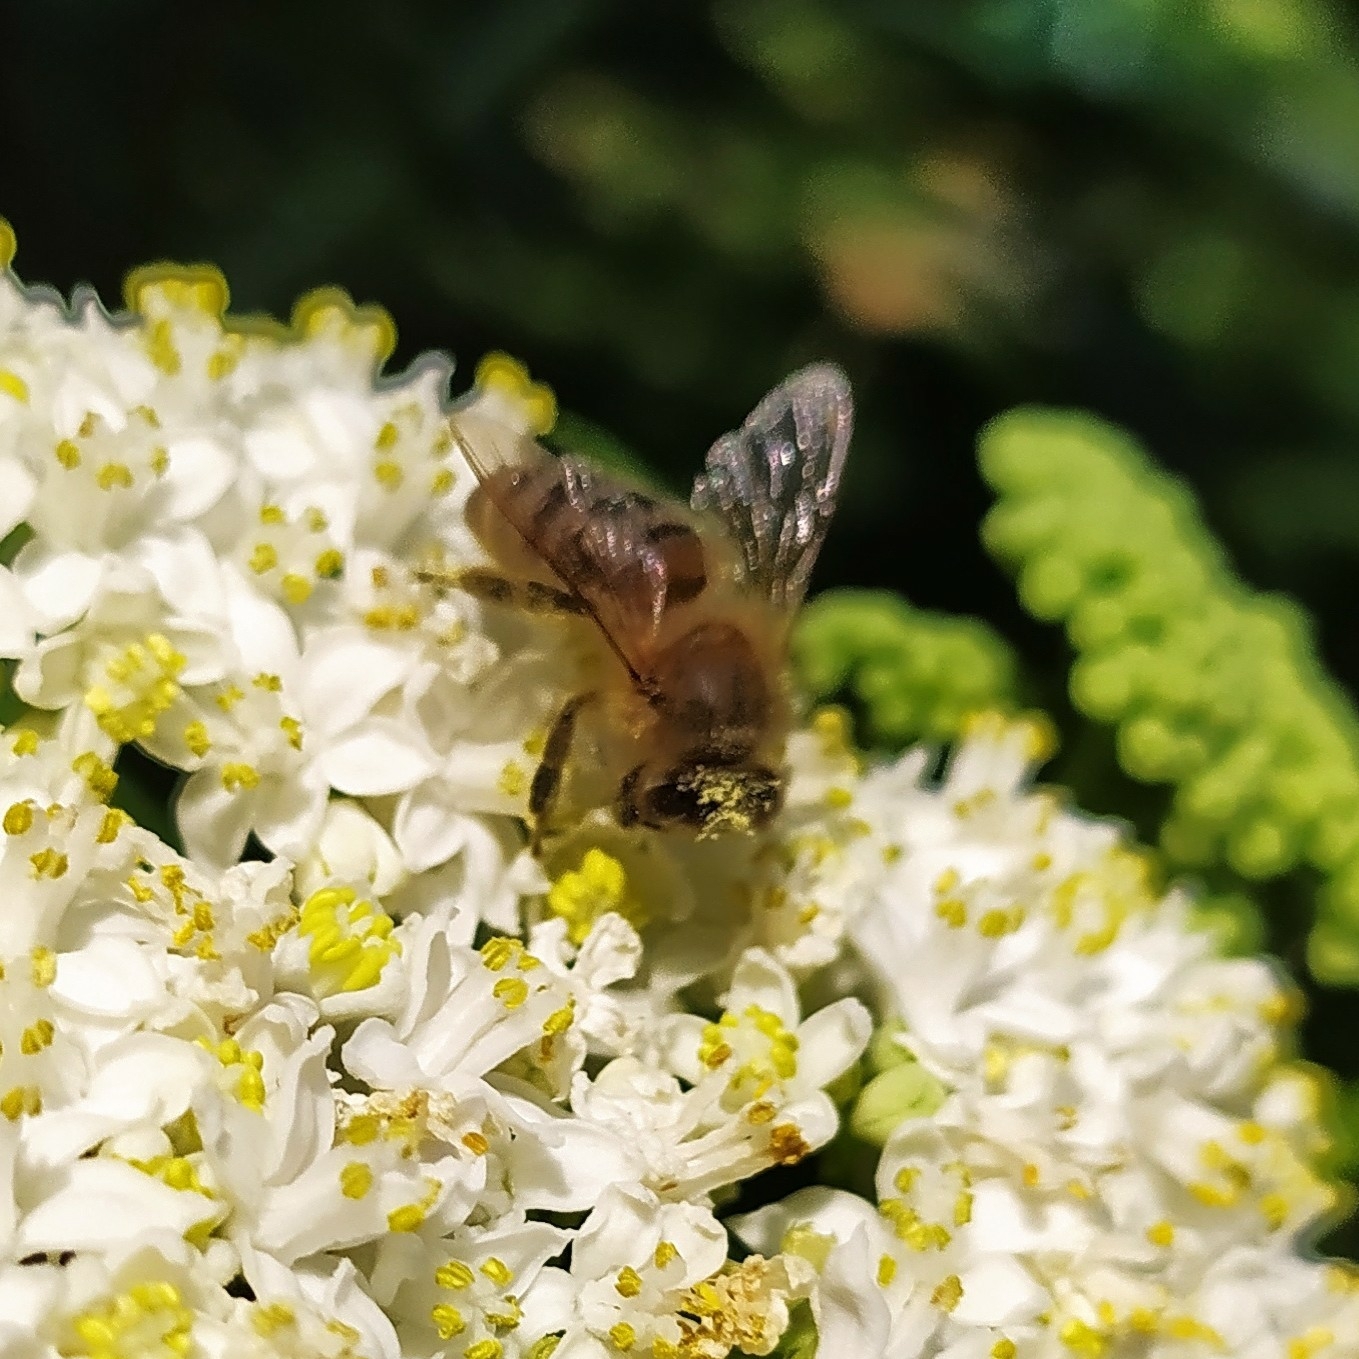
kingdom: Animalia
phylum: Arthropoda
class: Insecta
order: Hymenoptera
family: Apidae
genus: Apis
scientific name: Apis mellifera
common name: Honey bee
